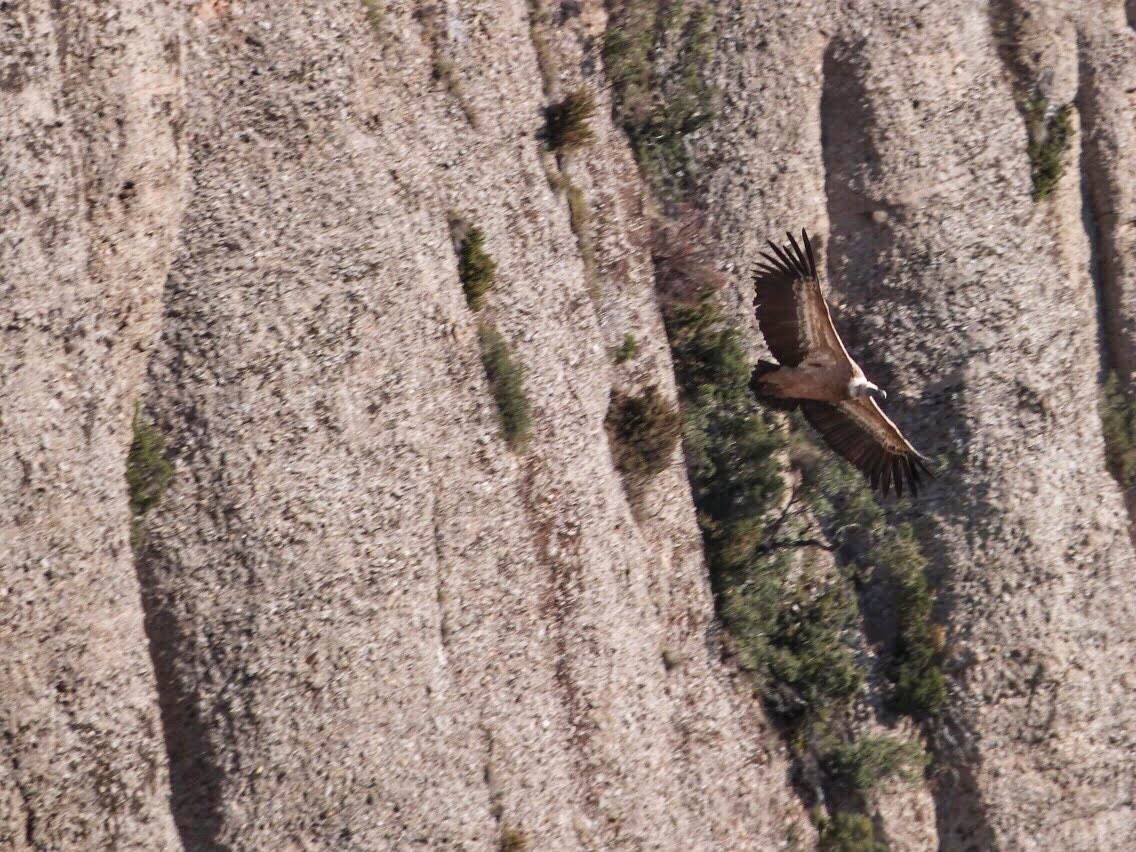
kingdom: Animalia
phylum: Chordata
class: Aves
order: Accipitriformes
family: Accipitridae
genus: Gyps
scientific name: Gyps fulvus
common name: Griffon vulture
